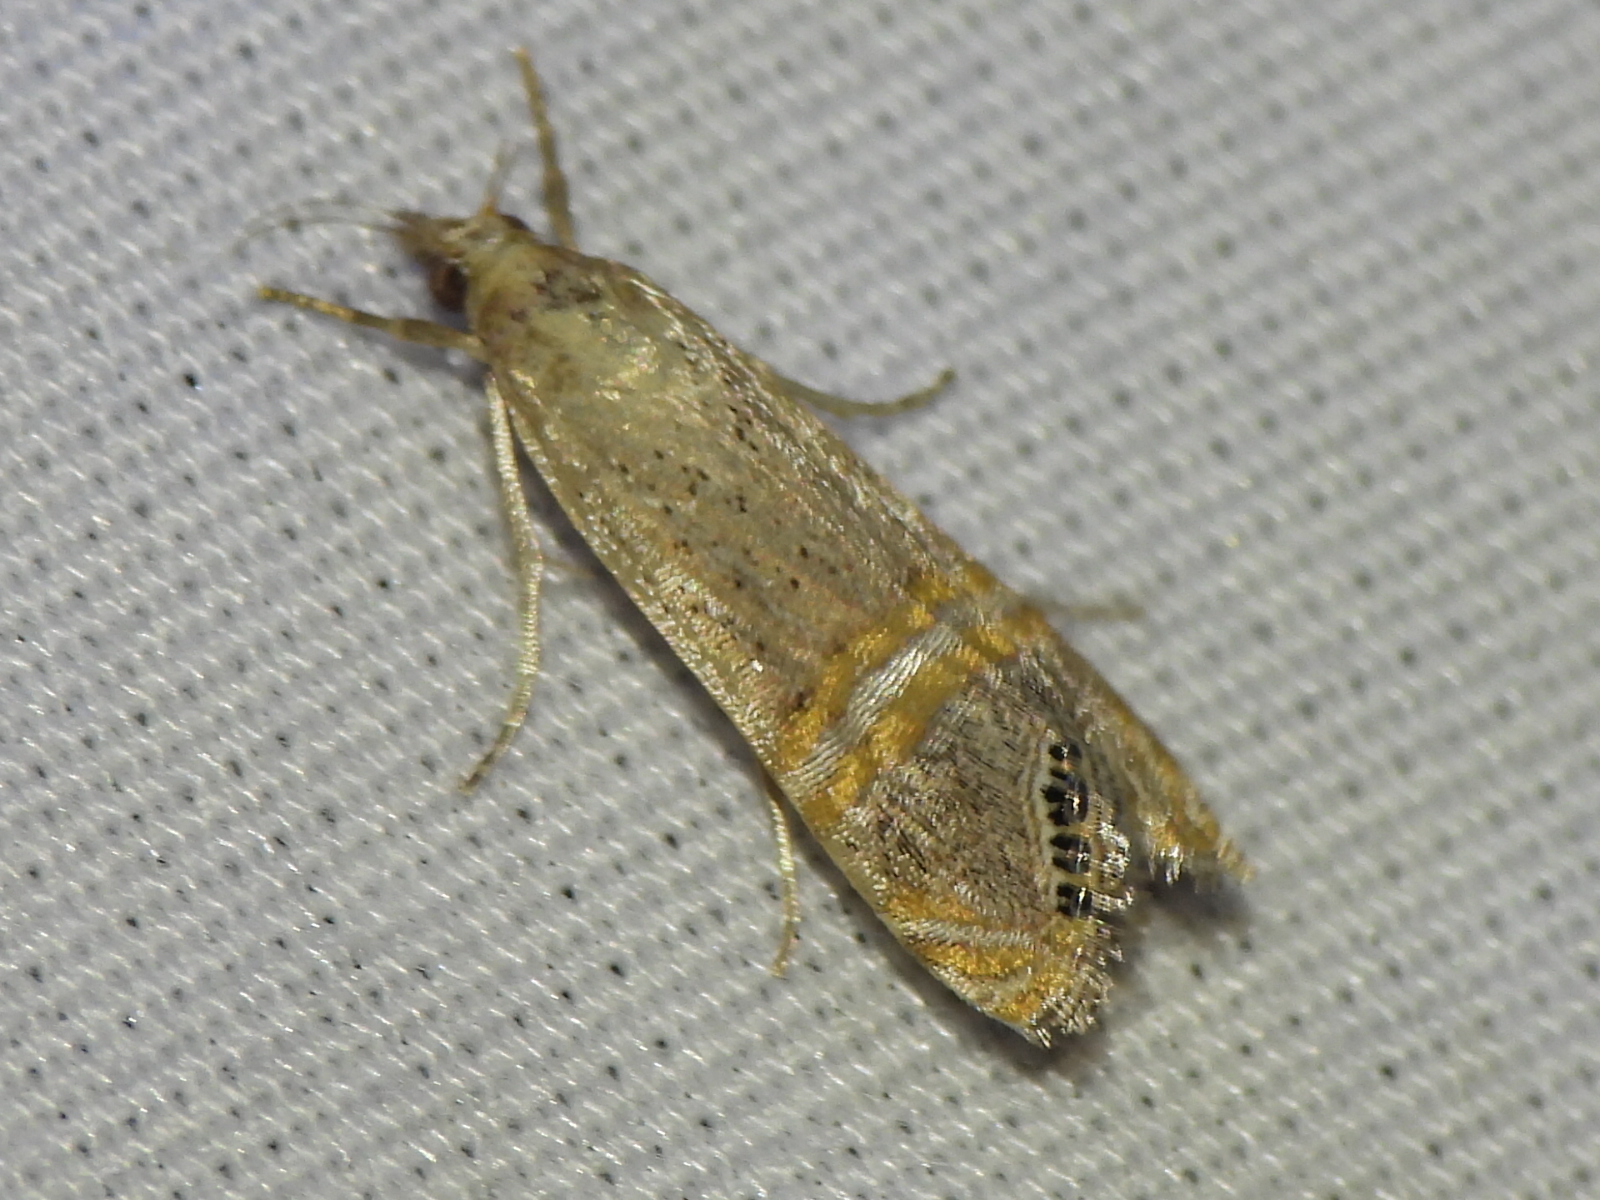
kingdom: Animalia
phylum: Arthropoda
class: Insecta
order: Lepidoptera
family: Crambidae
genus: Euchromius
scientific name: Euchromius ocellea
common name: Necklace veneer moth
